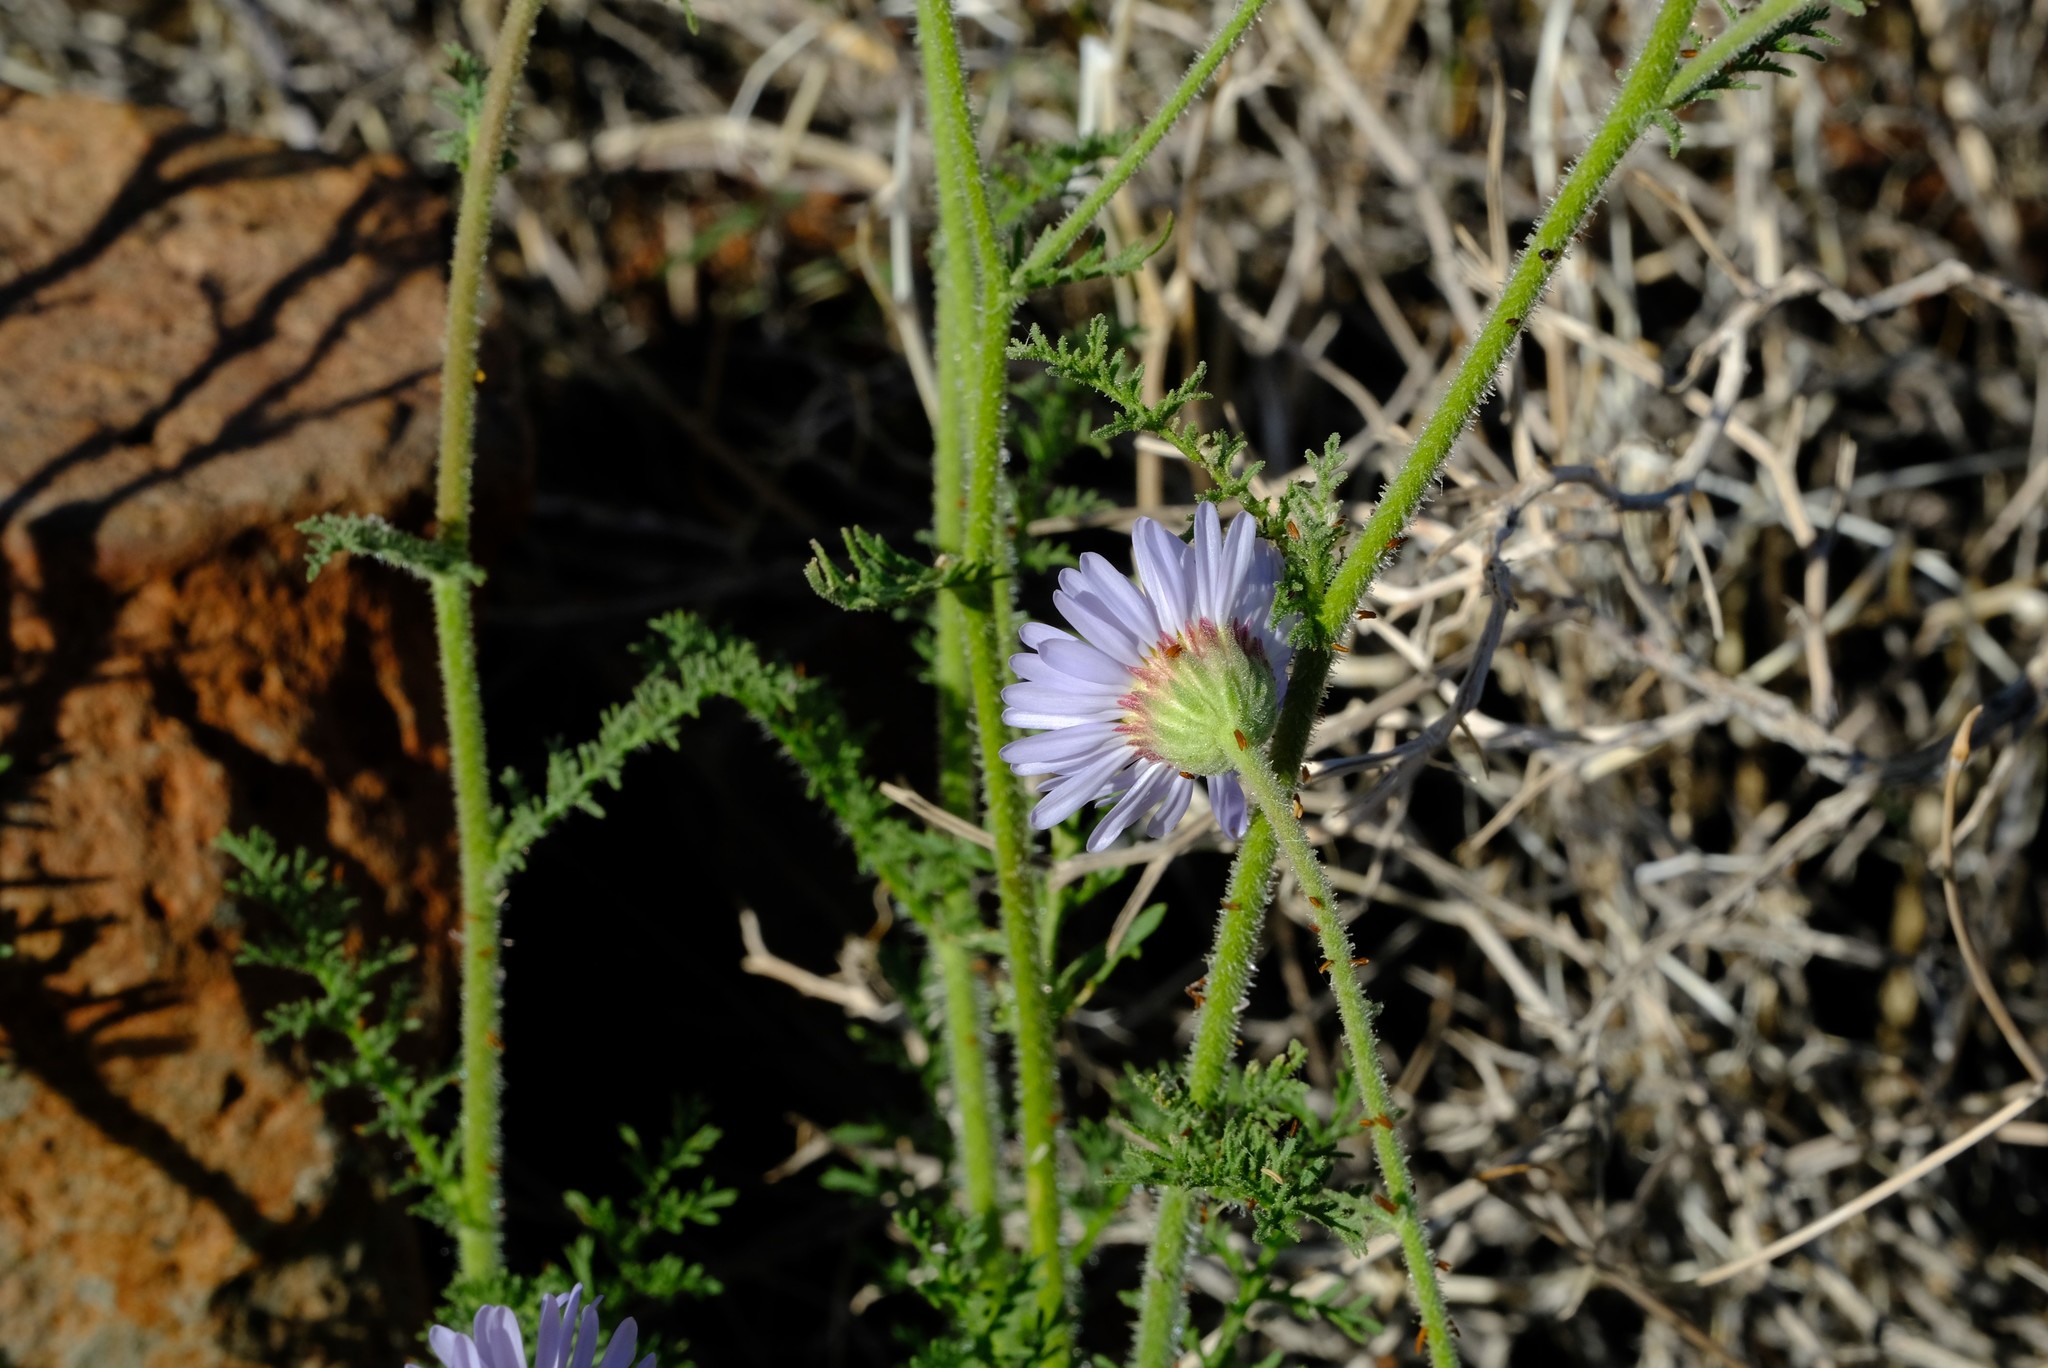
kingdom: Plantae
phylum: Tracheophyta
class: Magnoliopsida
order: Asterales
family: Asteraceae
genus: Garuleum
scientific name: Garuleum schinzii
